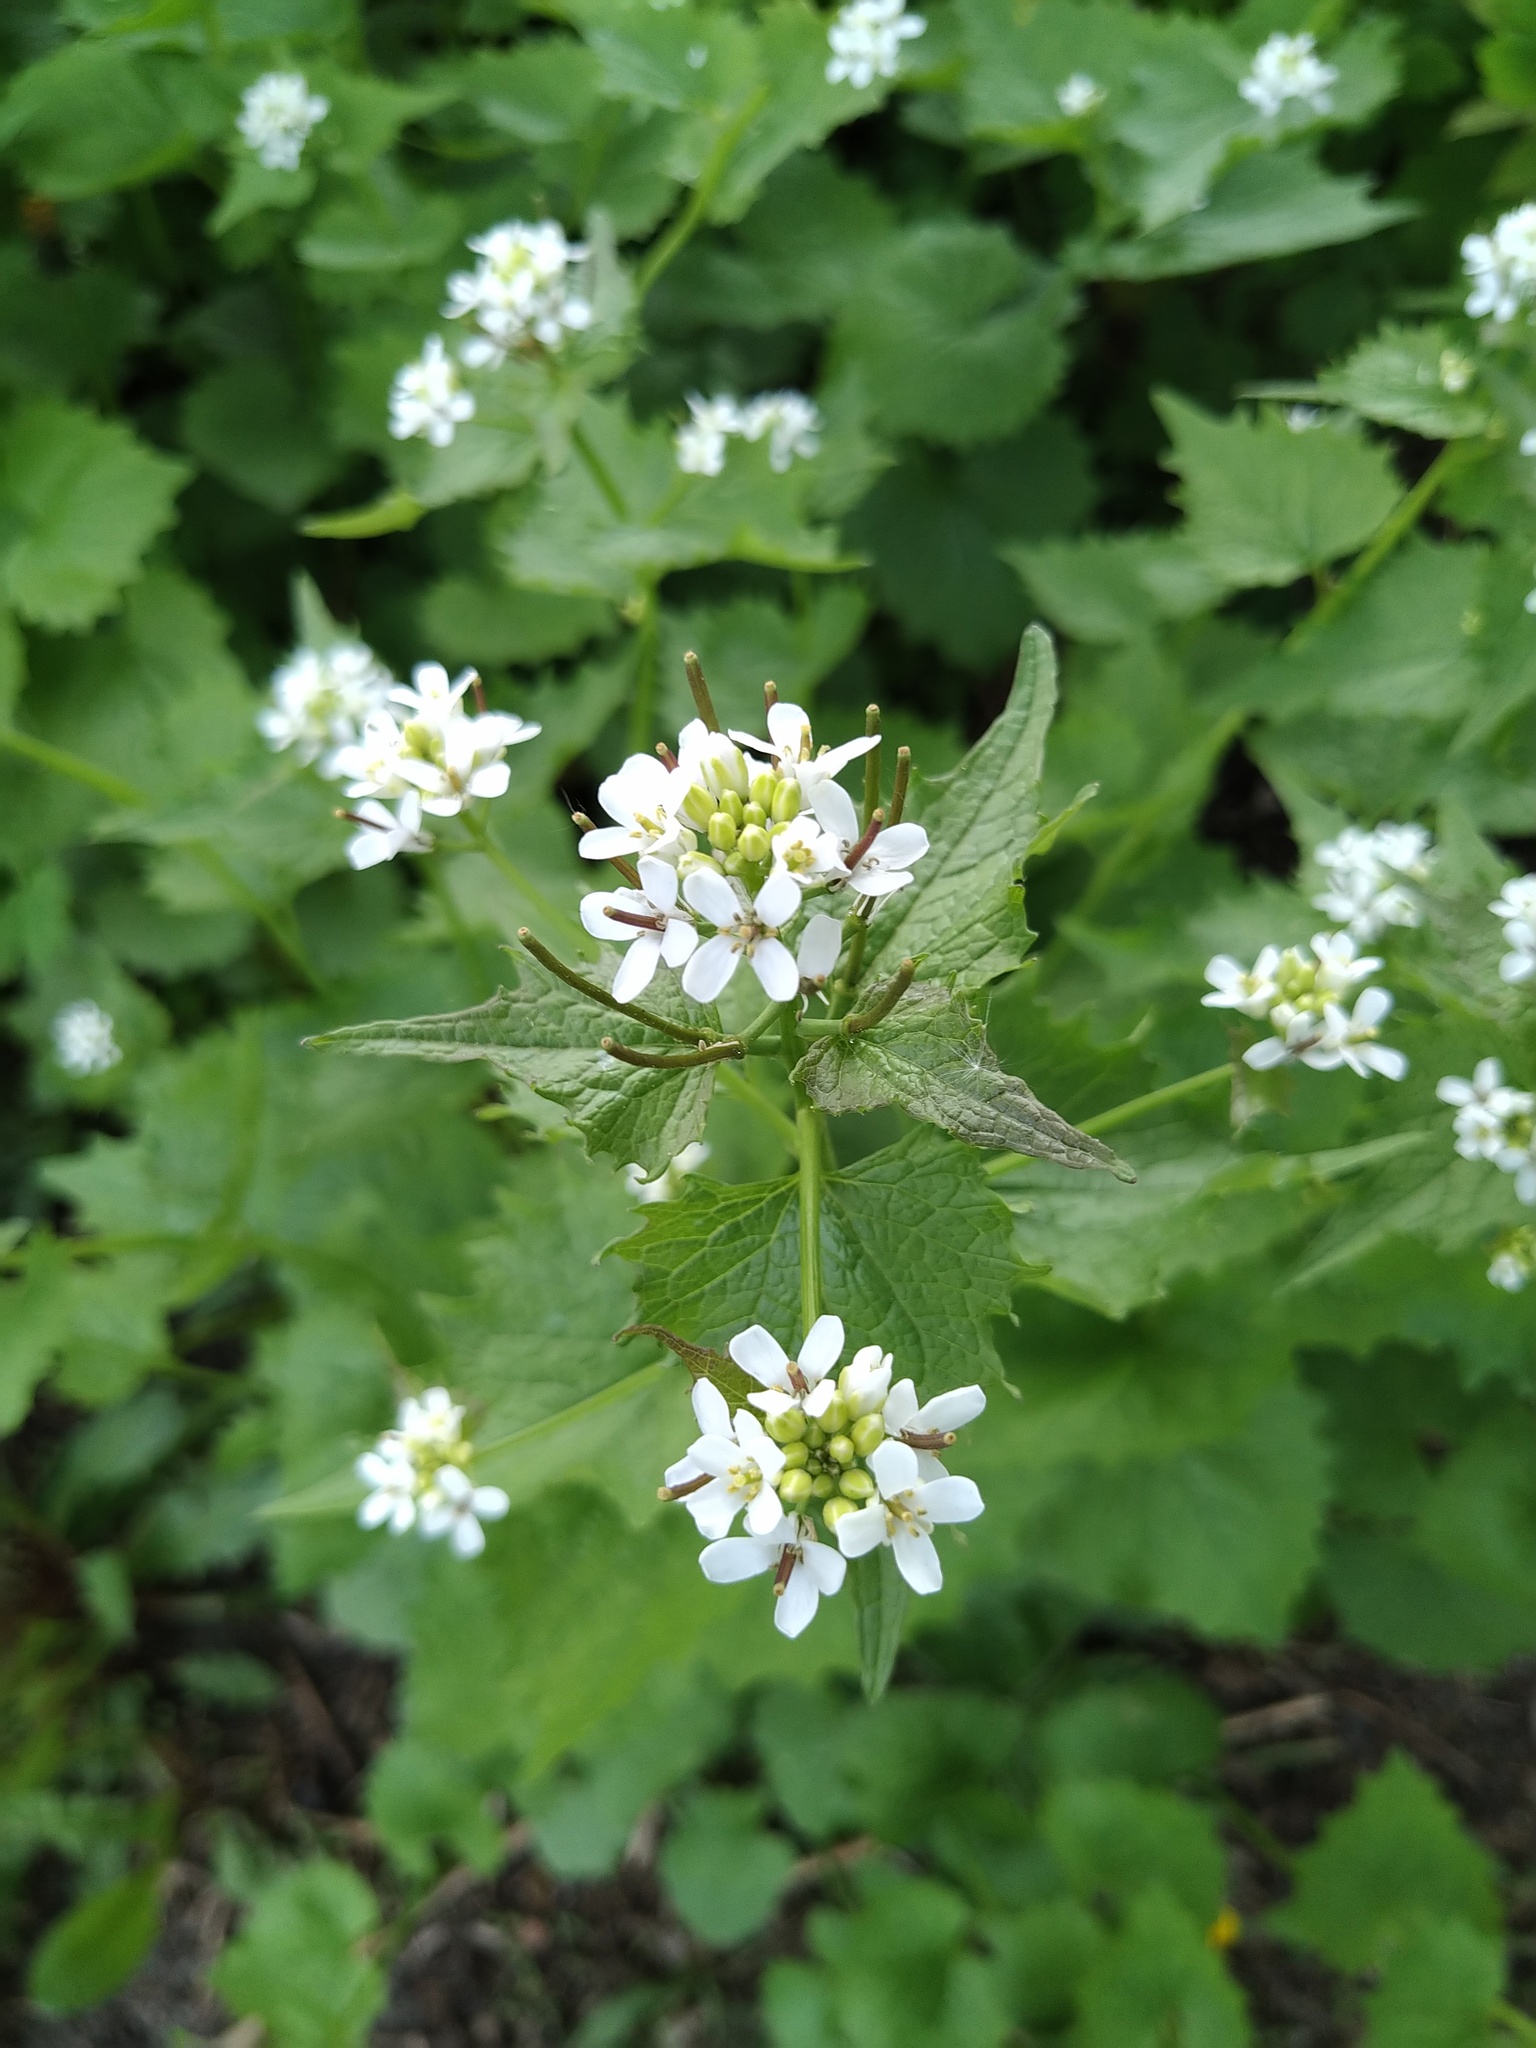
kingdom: Plantae
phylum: Tracheophyta
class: Magnoliopsida
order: Brassicales
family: Brassicaceae
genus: Alliaria
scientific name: Alliaria petiolata
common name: Garlic mustard
